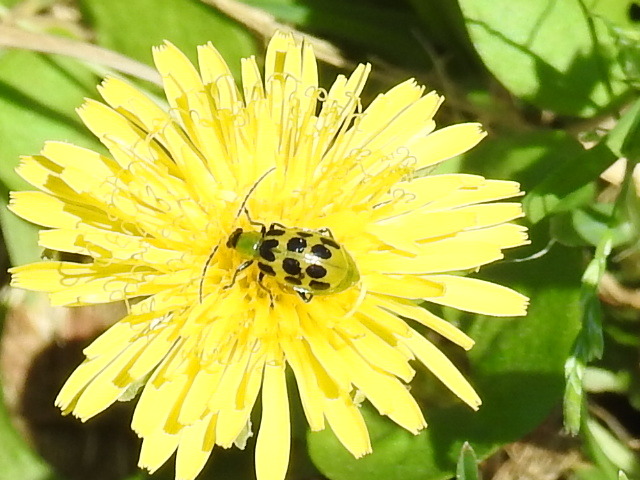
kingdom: Animalia
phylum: Arthropoda
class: Insecta
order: Coleoptera
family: Chrysomelidae
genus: Diabrotica
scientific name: Diabrotica undecimpunctata
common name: Spotted cucumber beetle
